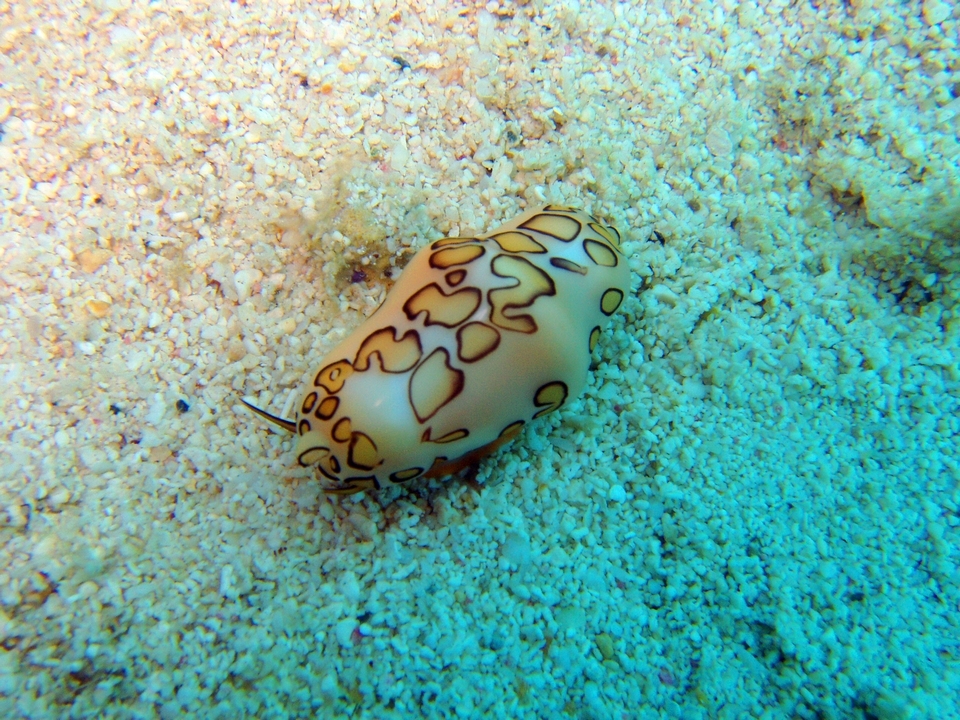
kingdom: Animalia
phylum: Mollusca
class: Gastropoda
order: Littorinimorpha
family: Ovulidae
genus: Cyphoma
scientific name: Cyphoma gibbosum
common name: Flamingo tongue
